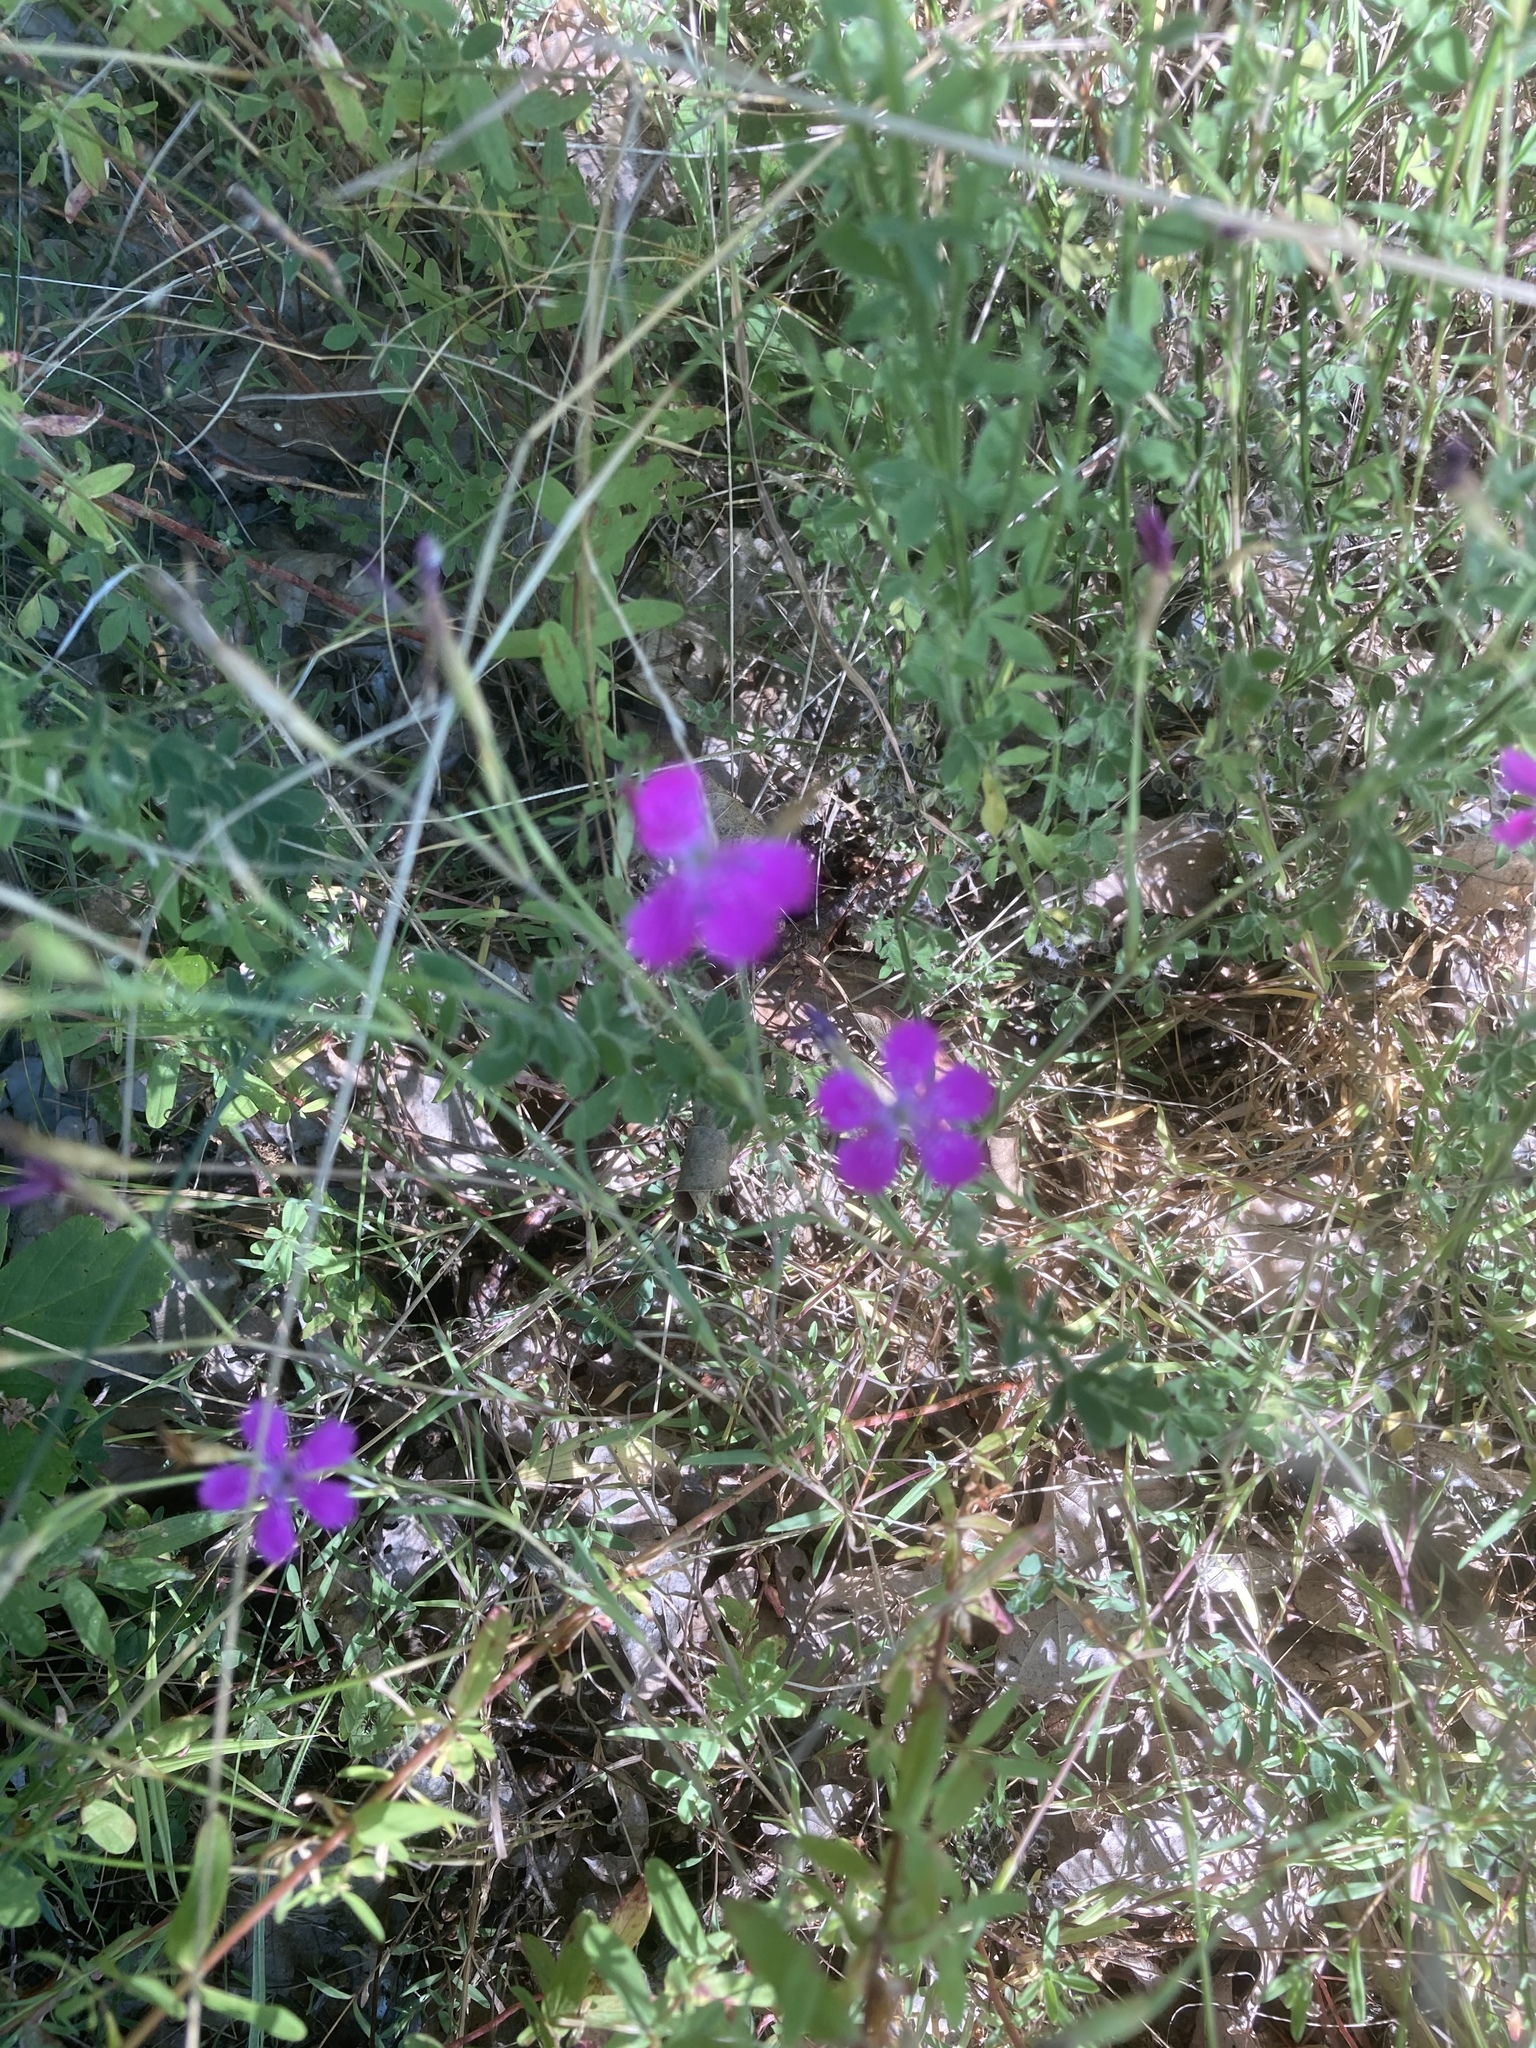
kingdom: Plantae
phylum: Tracheophyta
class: Magnoliopsida
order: Caryophyllales
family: Caryophyllaceae
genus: Dianthus
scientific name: Dianthus deltoides
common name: Maiden pink
